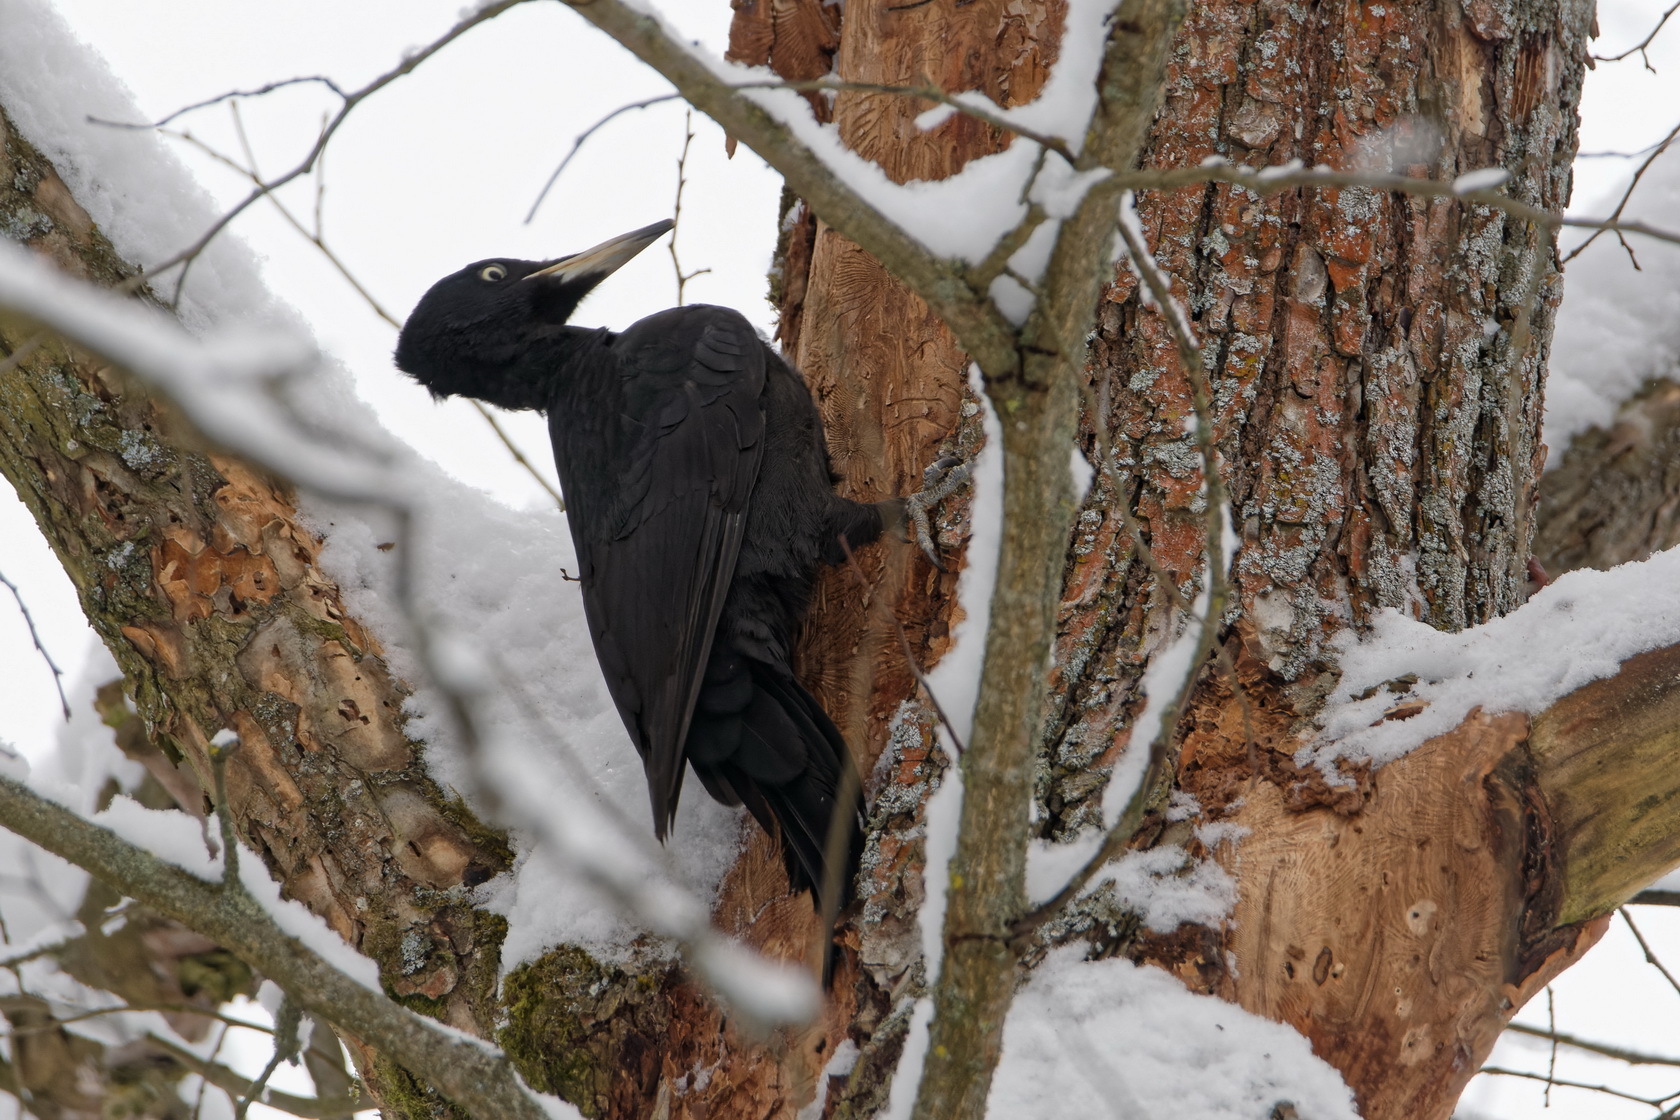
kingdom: Animalia
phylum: Chordata
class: Aves
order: Piciformes
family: Picidae
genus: Dryocopus
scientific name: Dryocopus martius
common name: Black woodpecker
